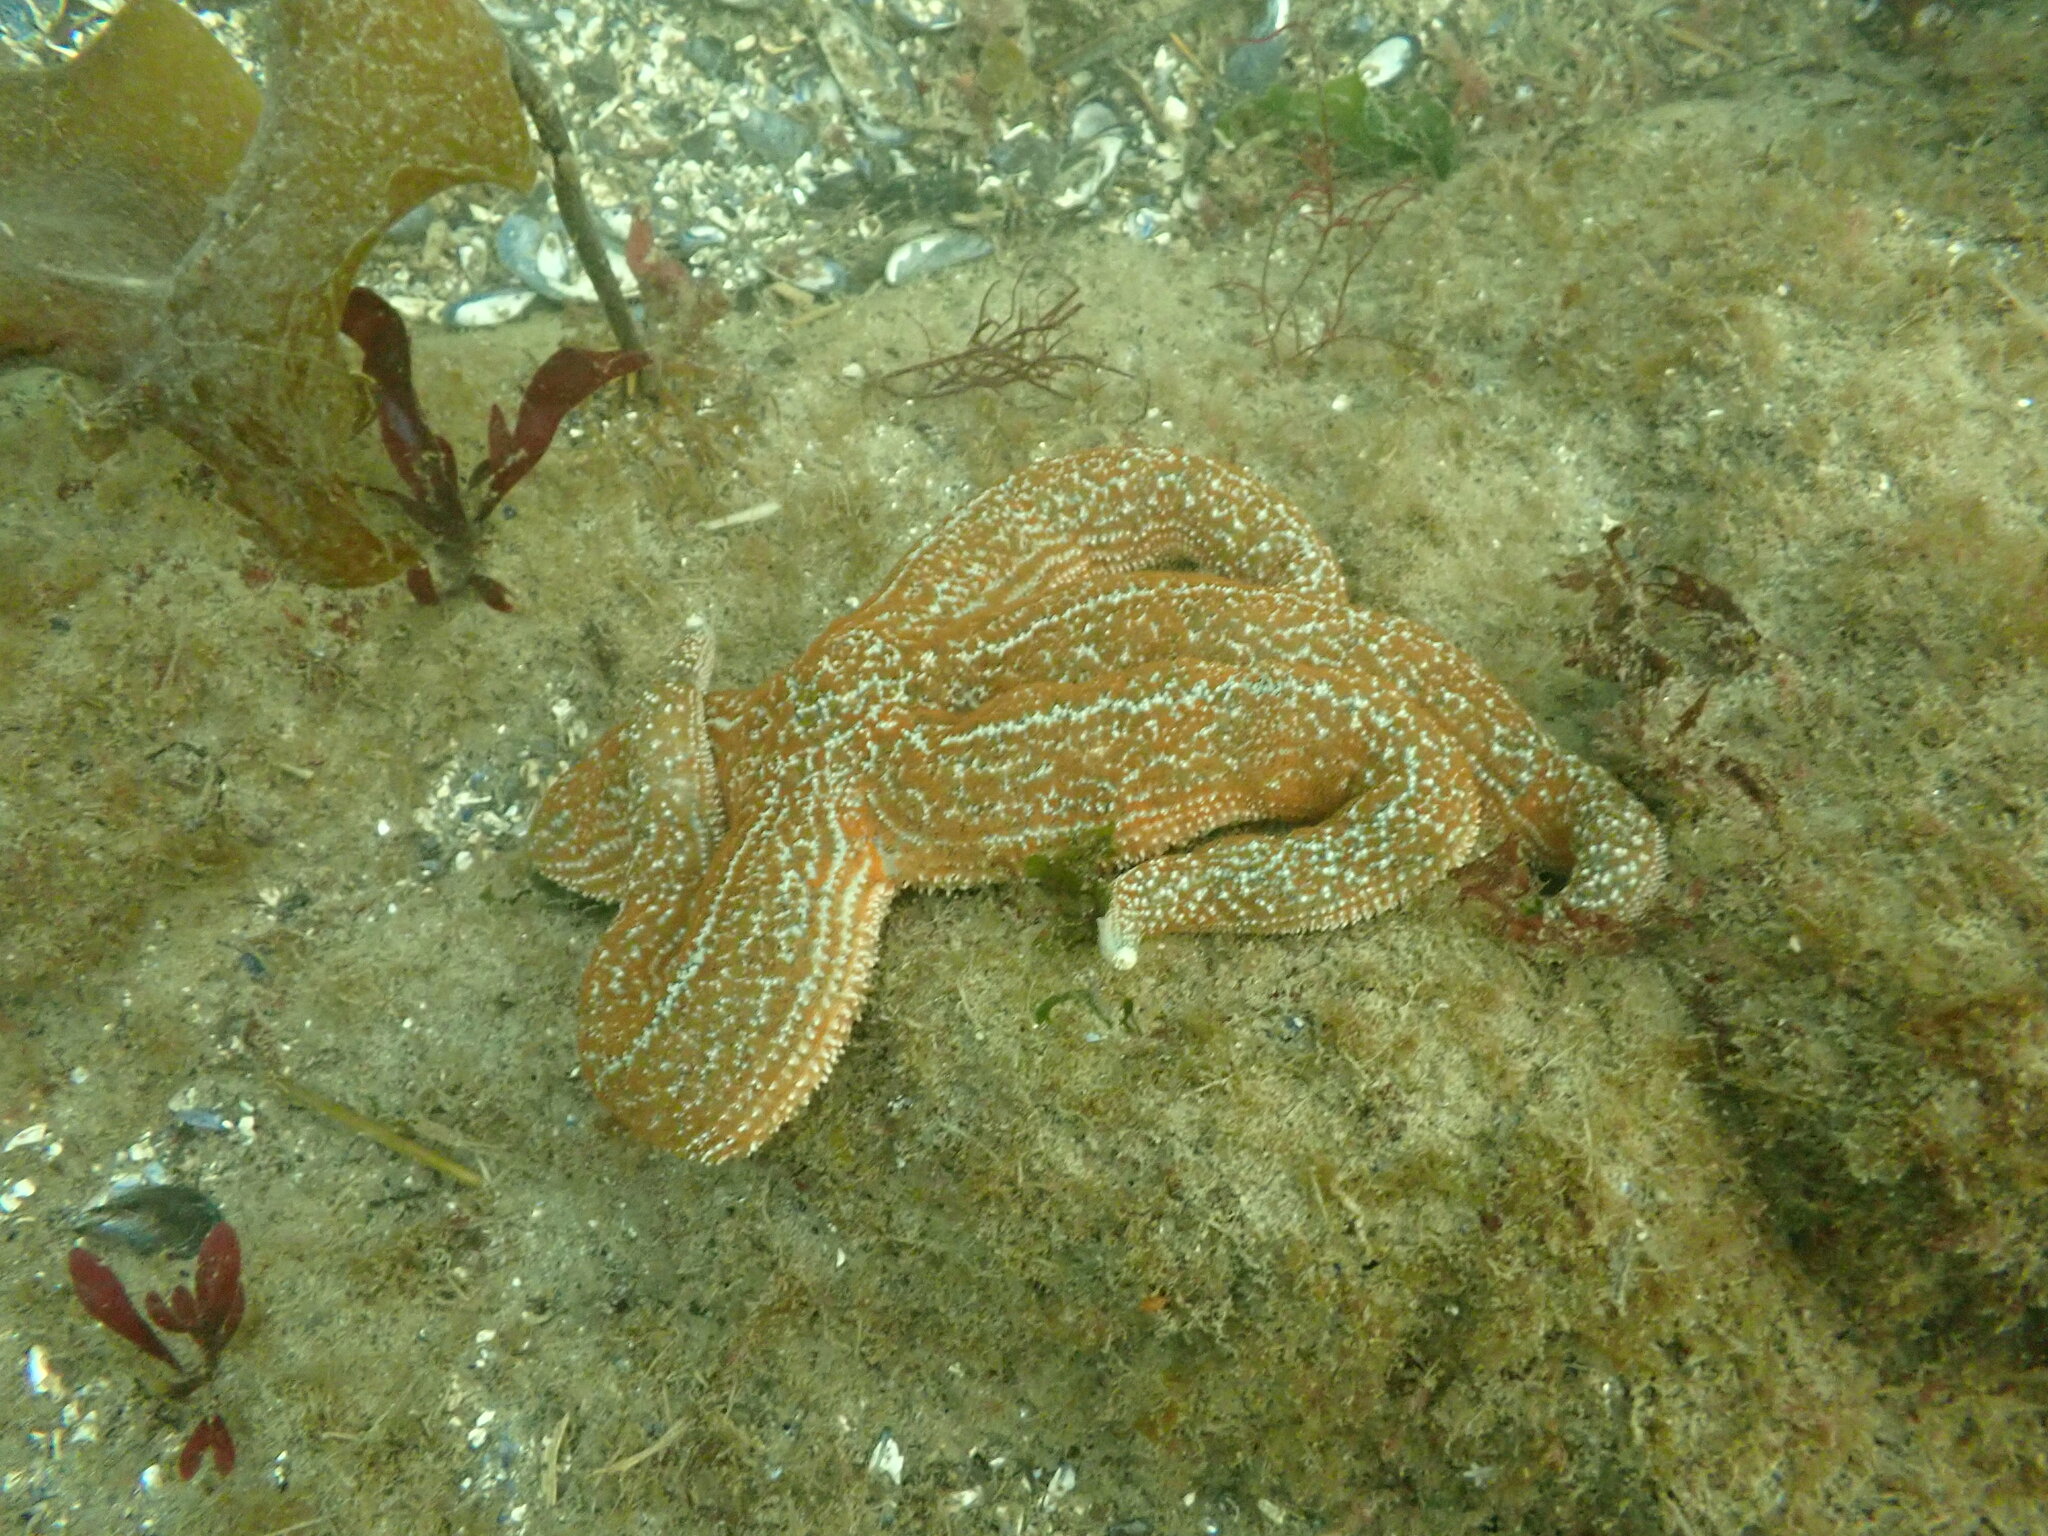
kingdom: Animalia
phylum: Echinodermata
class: Asteroidea
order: Forcipulatida
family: Asteriidae
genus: Evasterias
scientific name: Evasterias troschelii
